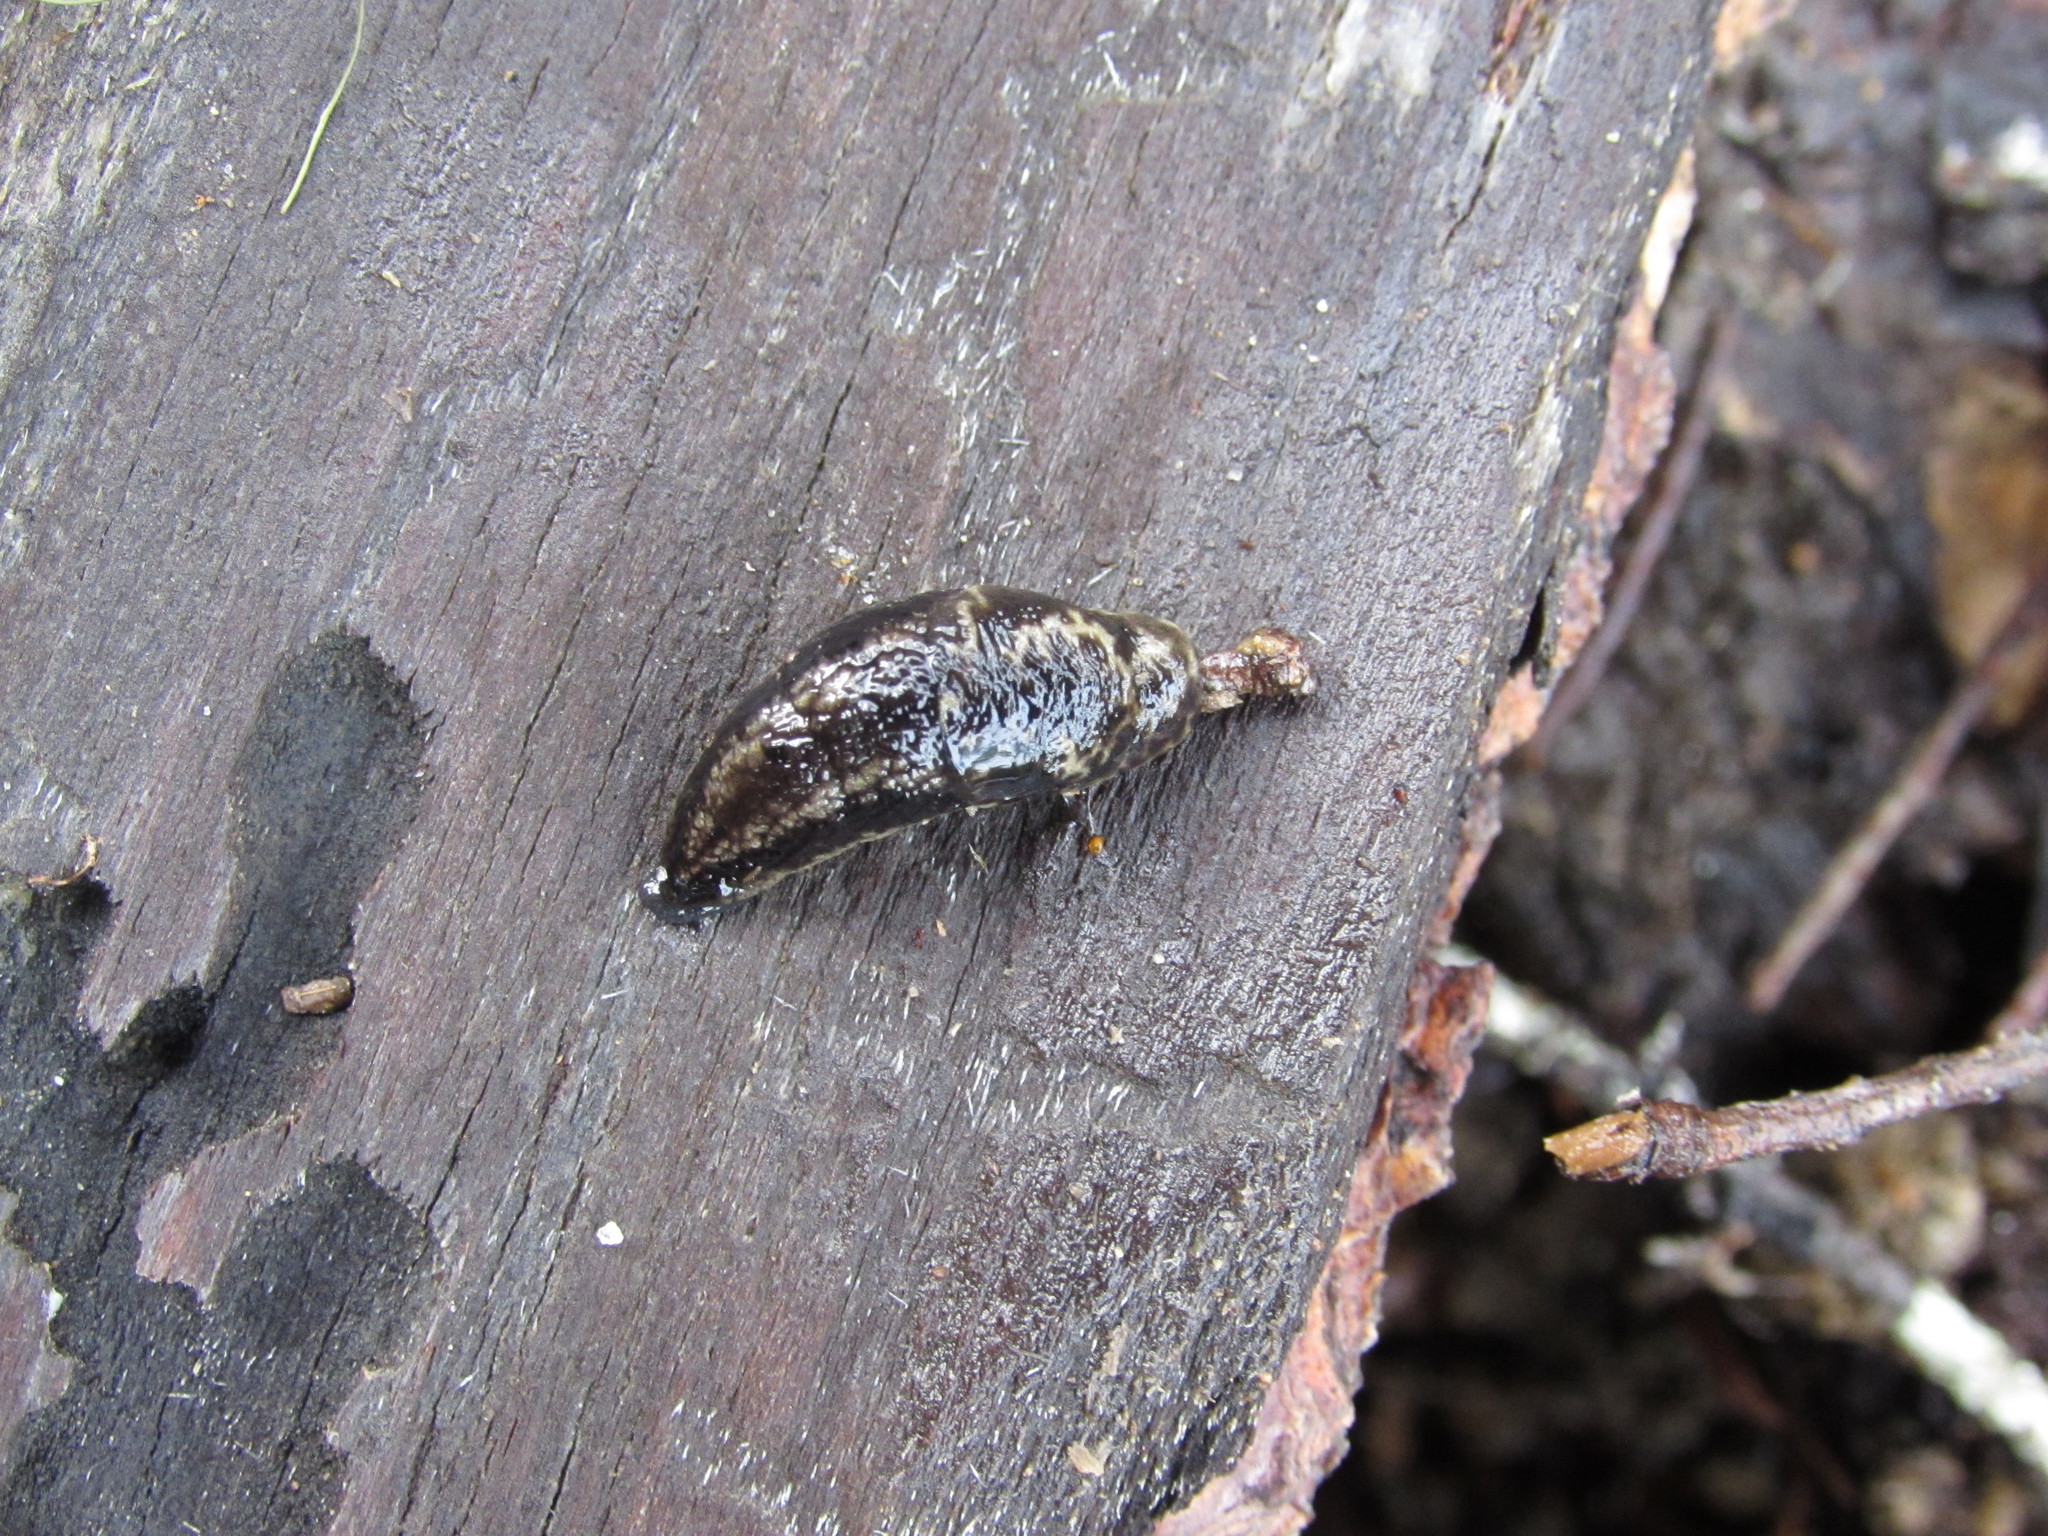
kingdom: Animalia
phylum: Mollusca
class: Gastropoda
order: Stylommatophora
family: Ariolimacidae
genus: Prophysaon
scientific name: Prophysaon vanattae
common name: Scarletback taildropper
